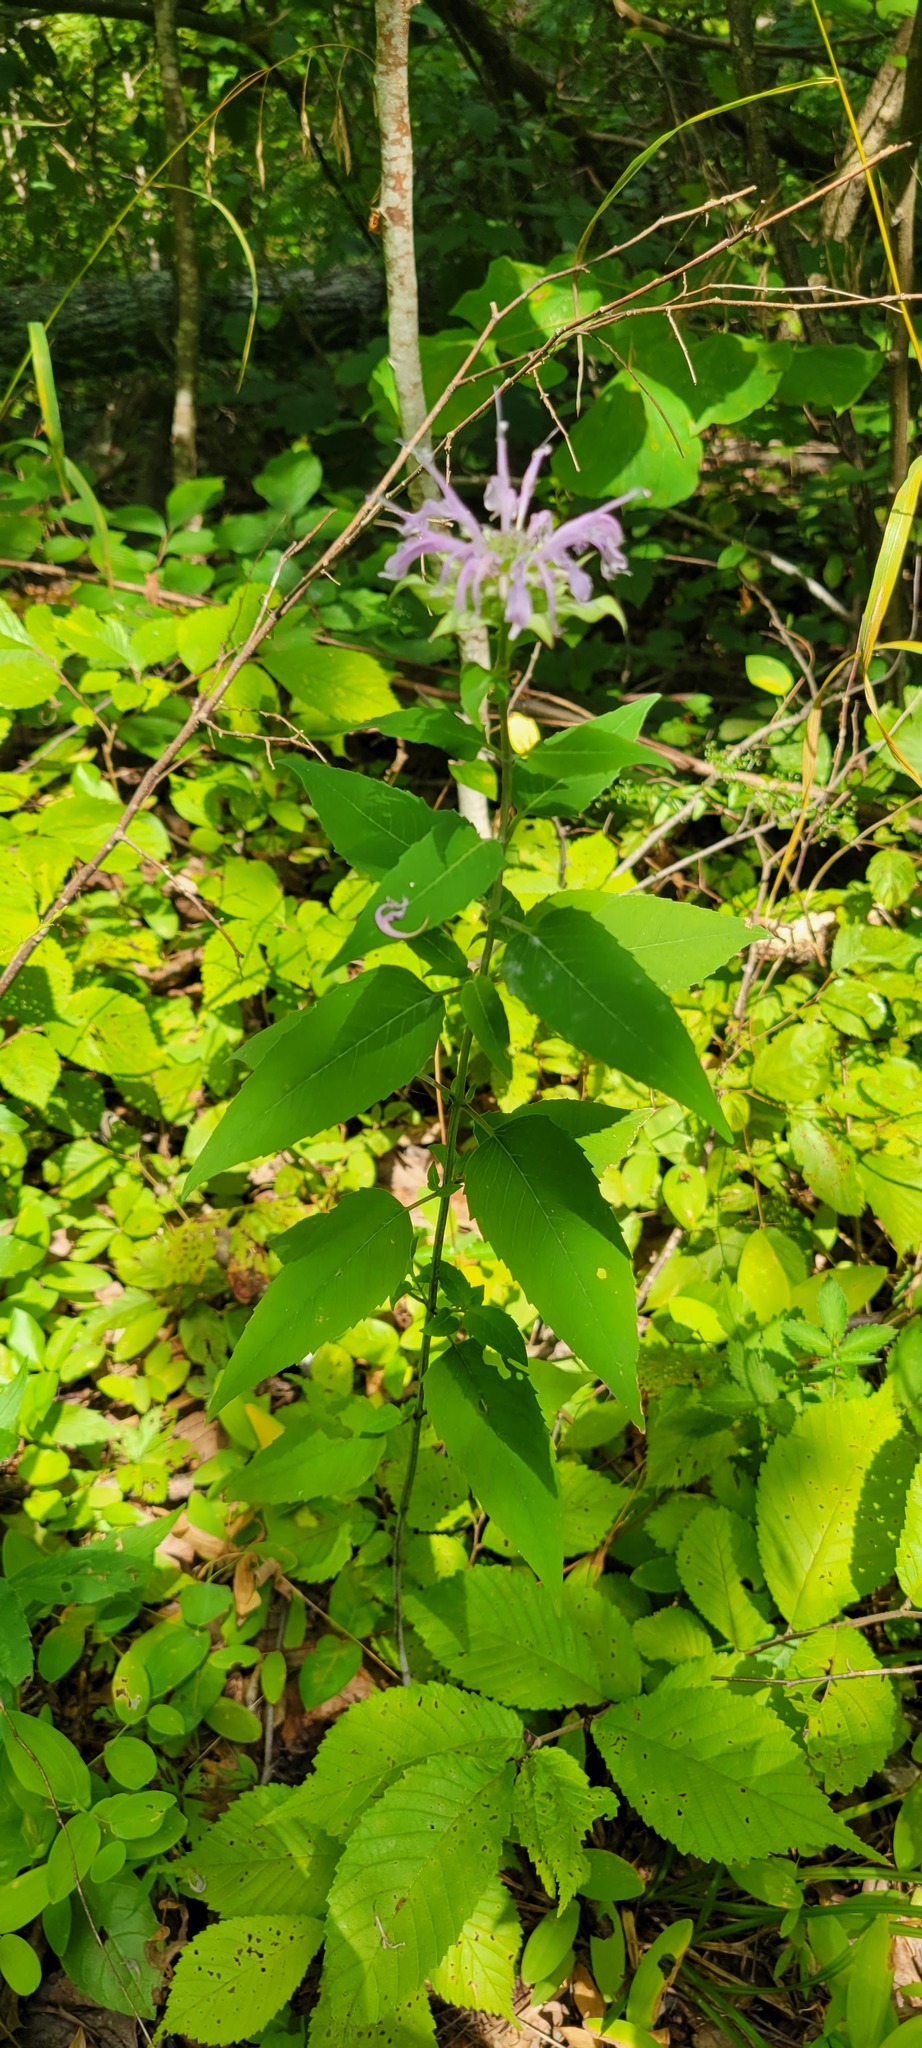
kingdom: Plantae
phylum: Tracheophyta
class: Magnoliopsida
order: Lamiales
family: Lamiaceae
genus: Monarda
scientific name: Monarda fistulosa
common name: Purple beebalm
